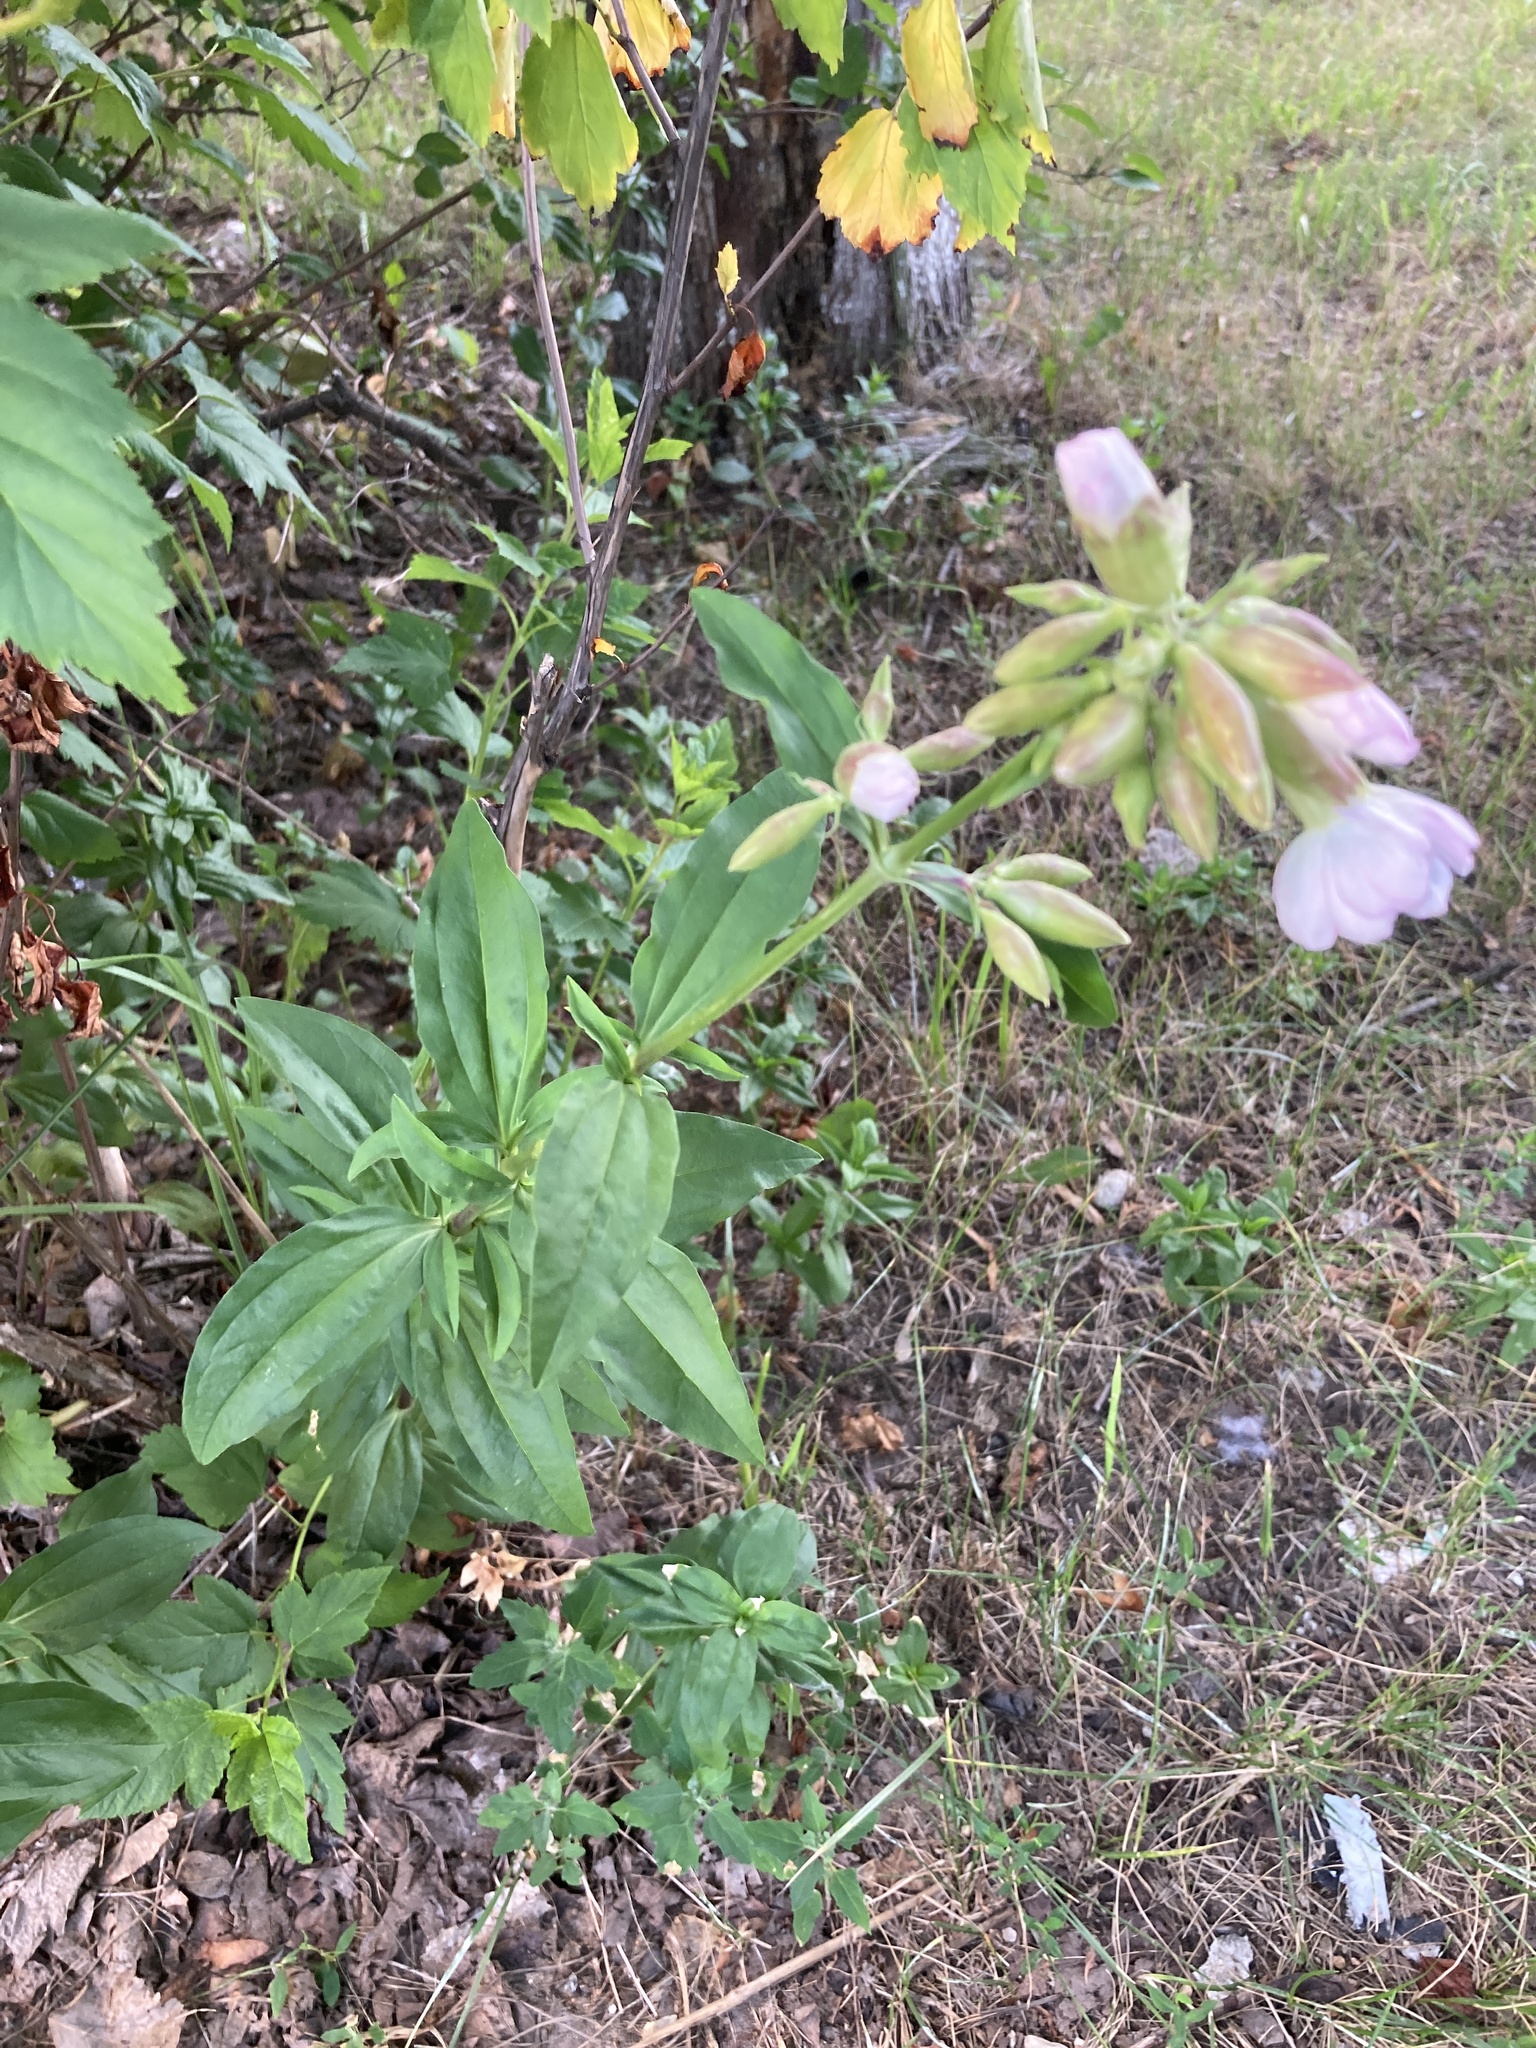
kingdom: Plantae
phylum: Tracheophyta
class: Magnoliopsida
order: Caryophyllales
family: Caryophyllaceae
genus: Saponaria
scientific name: Saponaria officinalis
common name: Soapwort
